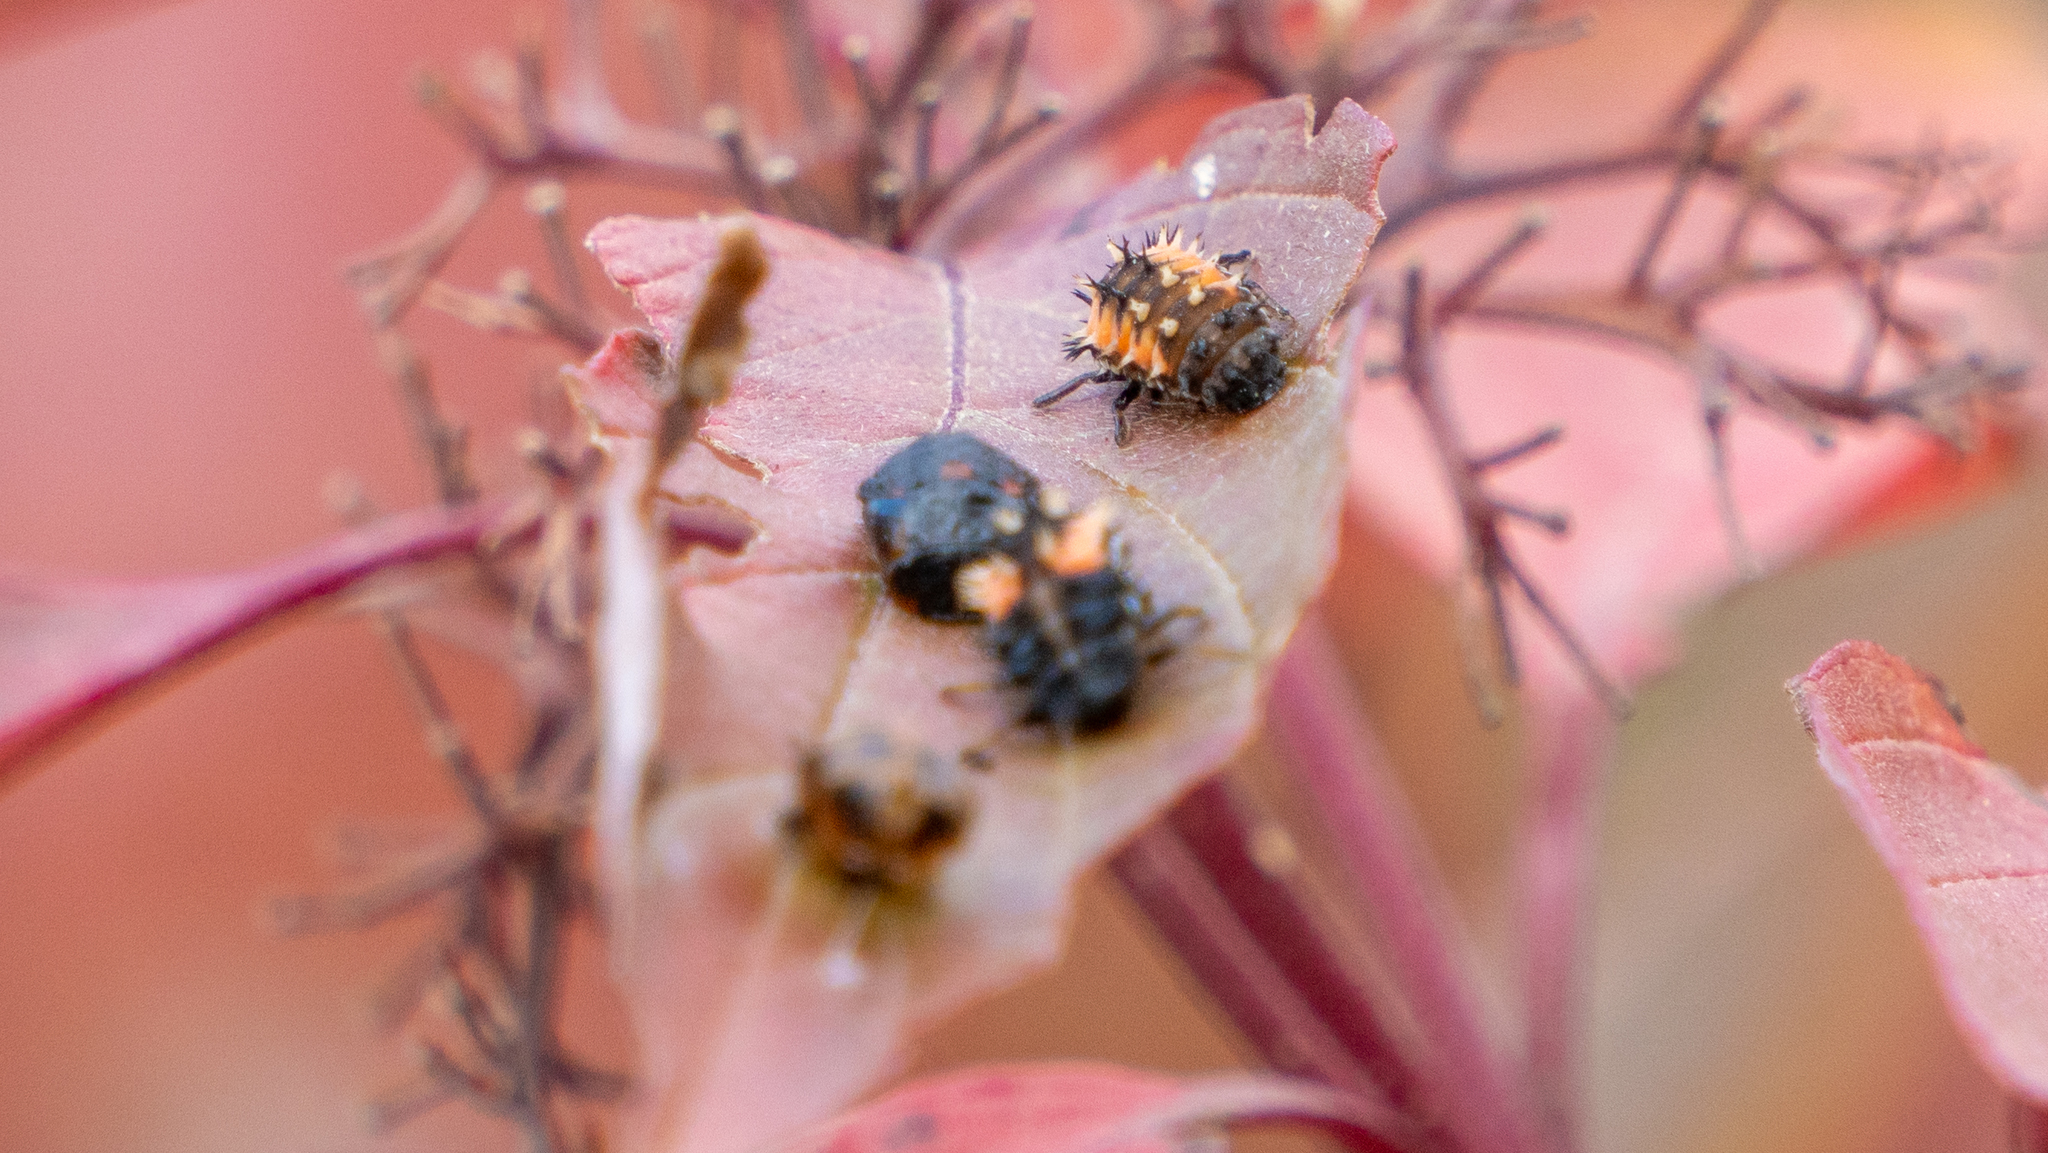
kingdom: Animalia
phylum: Arthropoda
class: Insecta
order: Coleoptera
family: Coccinellidae
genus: Harmonia
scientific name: Harmonia axyridis
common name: Harlequin ladybird
